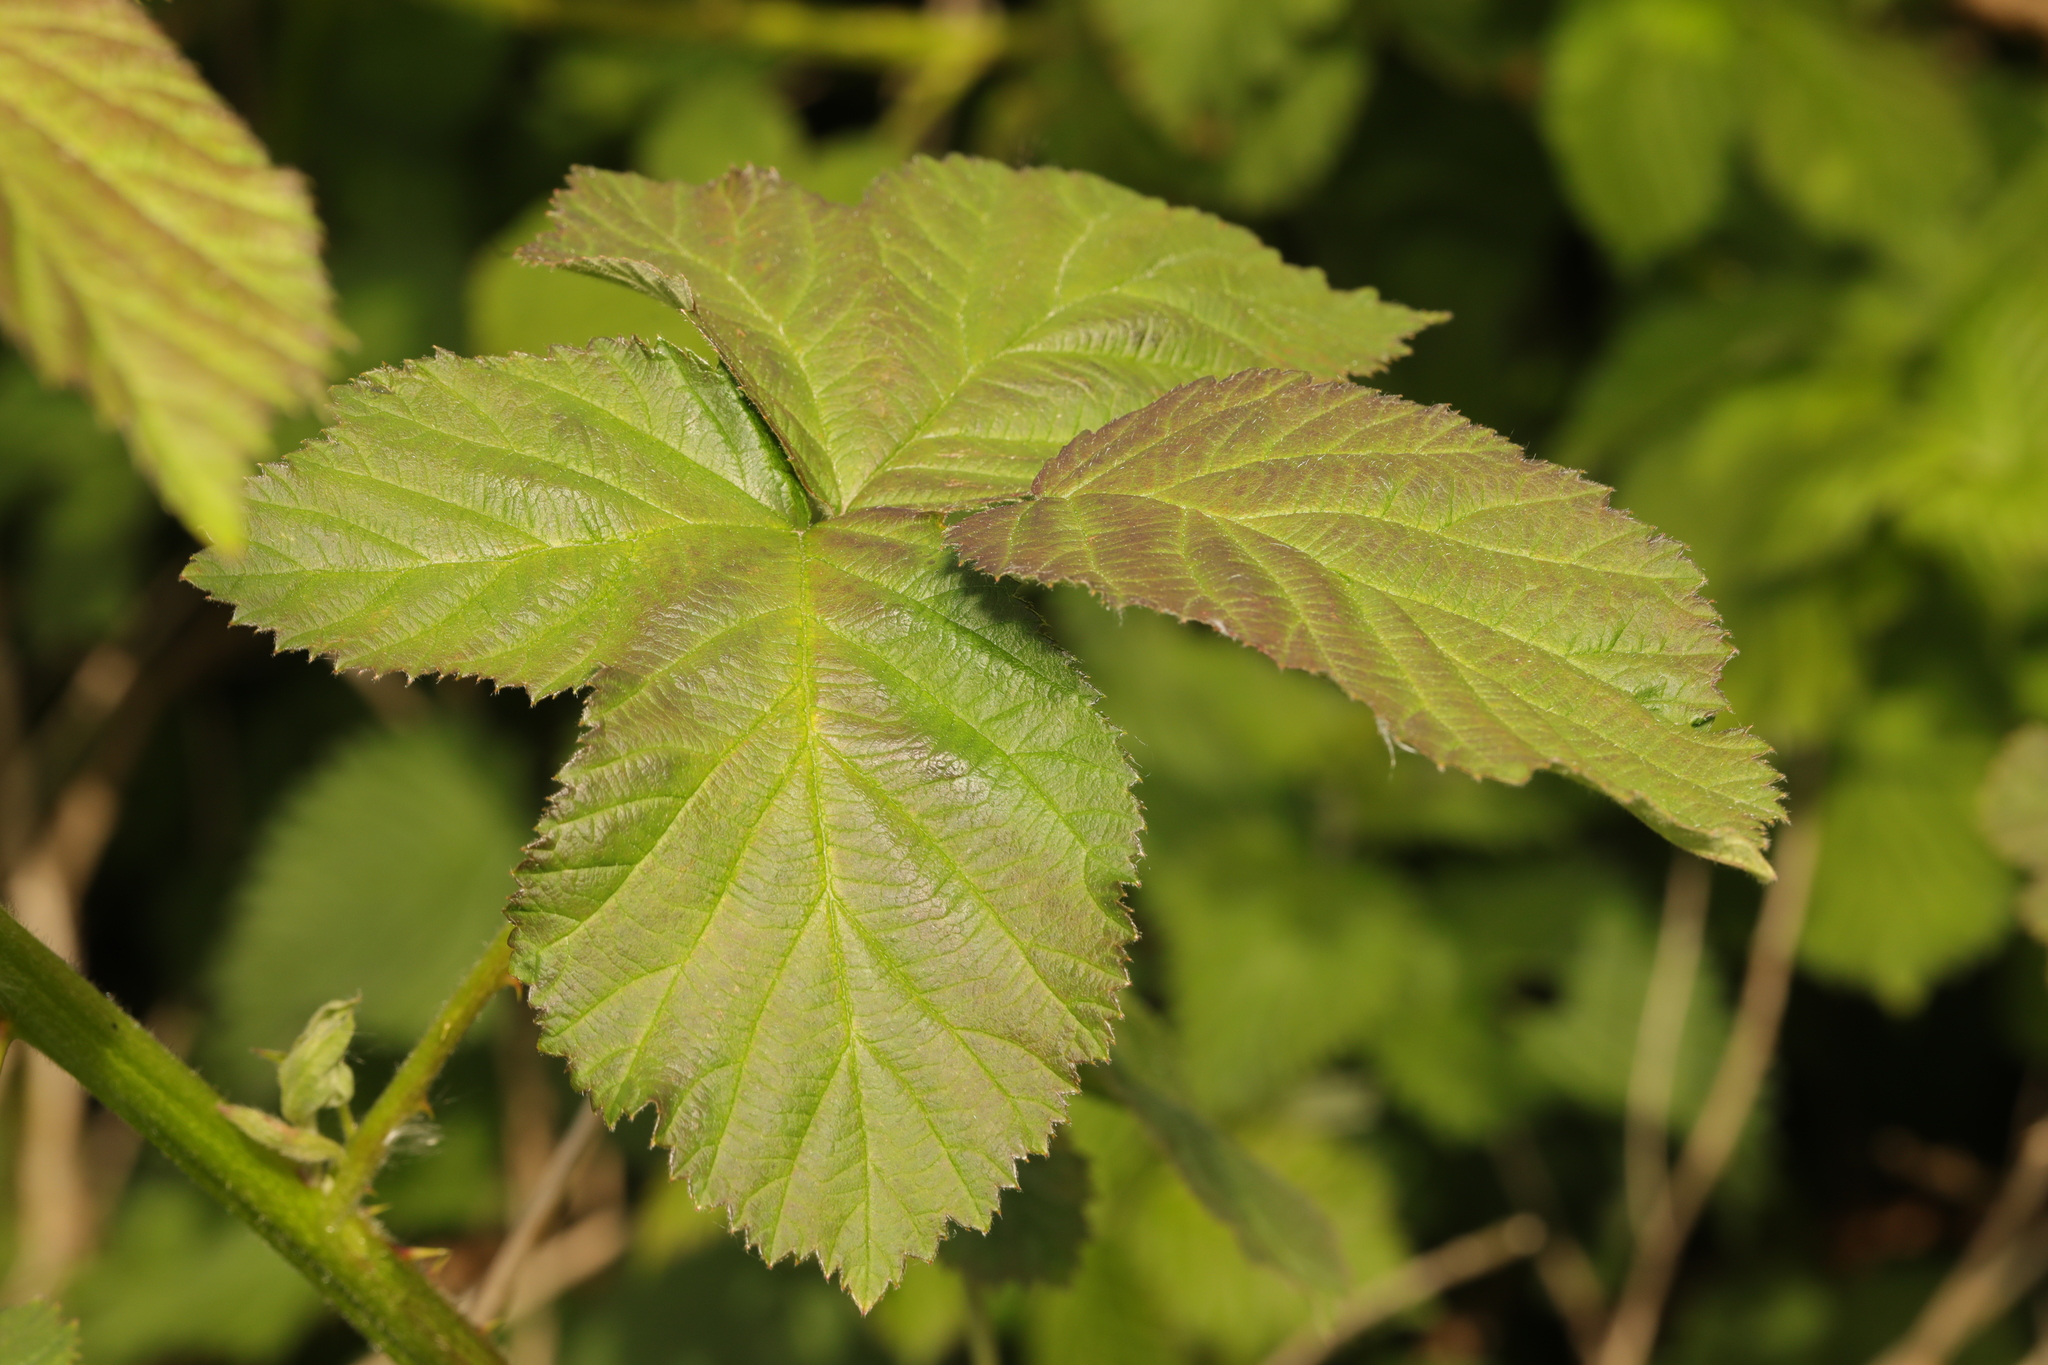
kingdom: Plantae
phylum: Tracheophyta
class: Magnoliopsida
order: Rosales
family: Rosaceae
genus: Rubus
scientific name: Rubus armeniacus
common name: Himalayan blackberry
